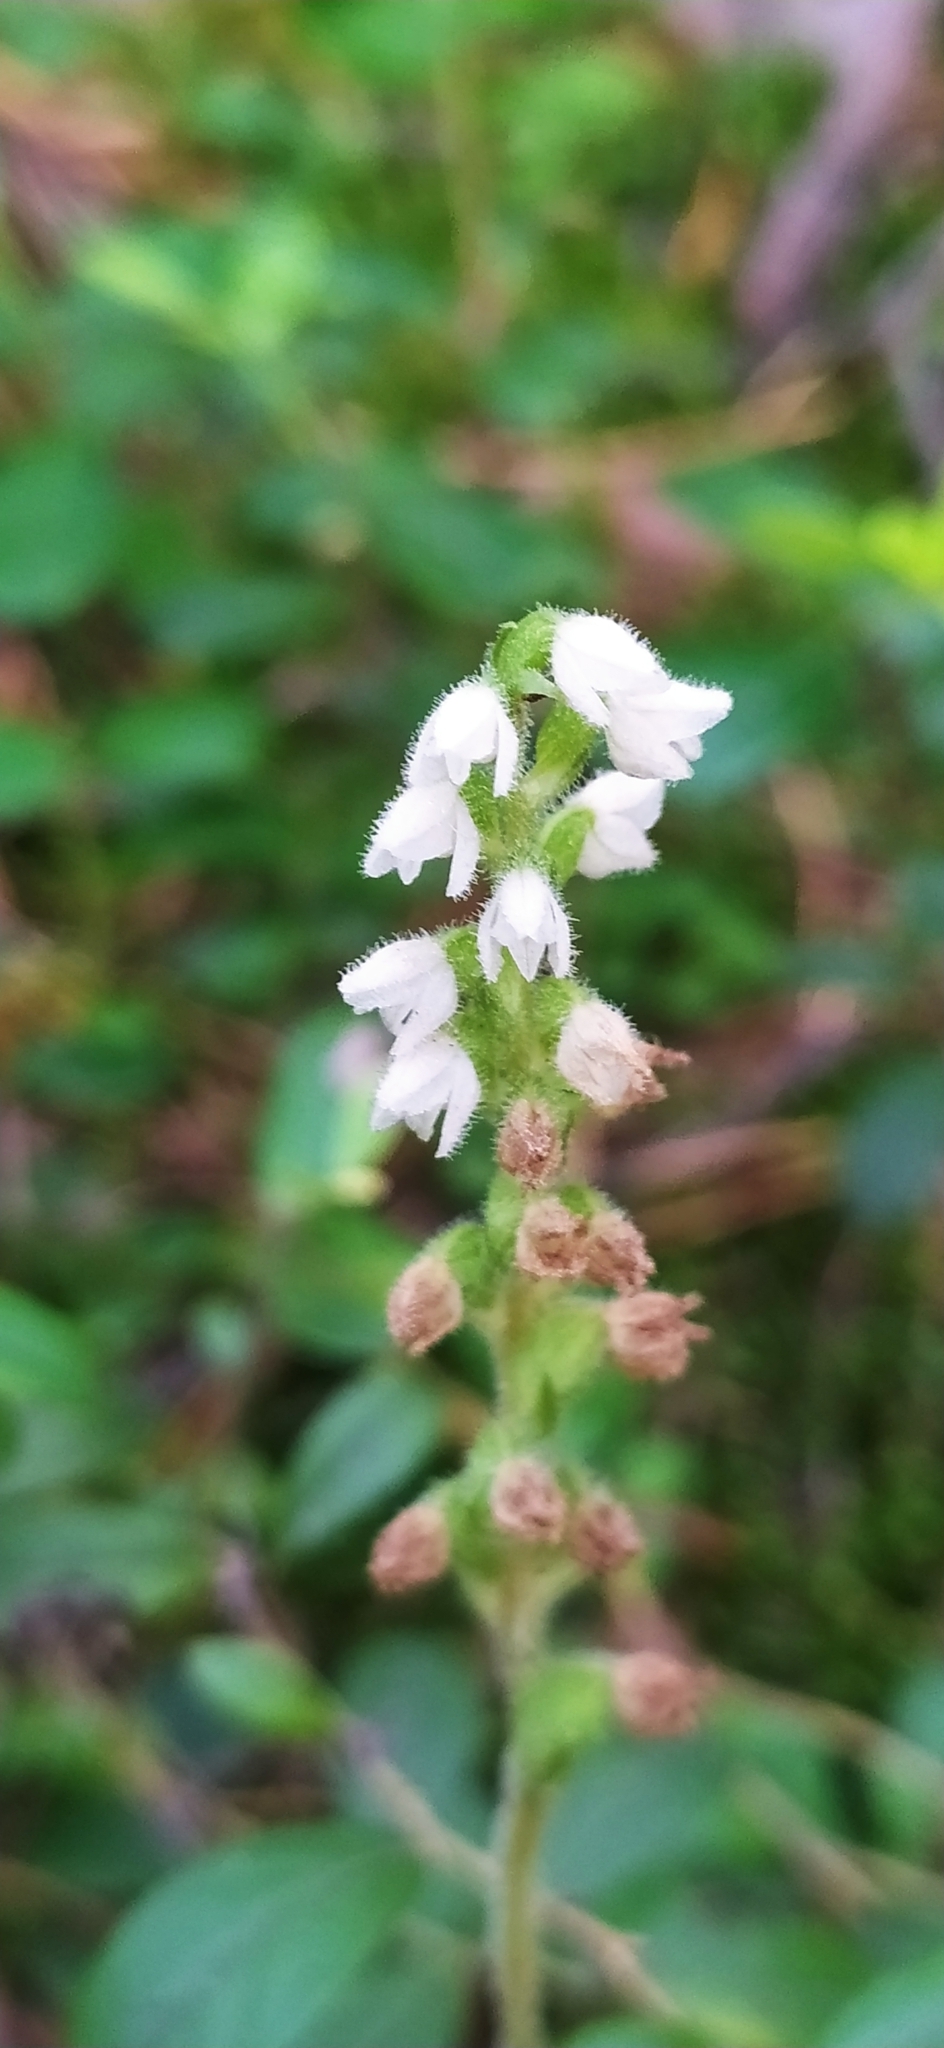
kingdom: Plantae
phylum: Tracheophyta
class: Liliopsida
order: Asparagales
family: Orchidaceae
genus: Goodyera
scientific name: Goodyera repens
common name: Creeping lady's-tresses
